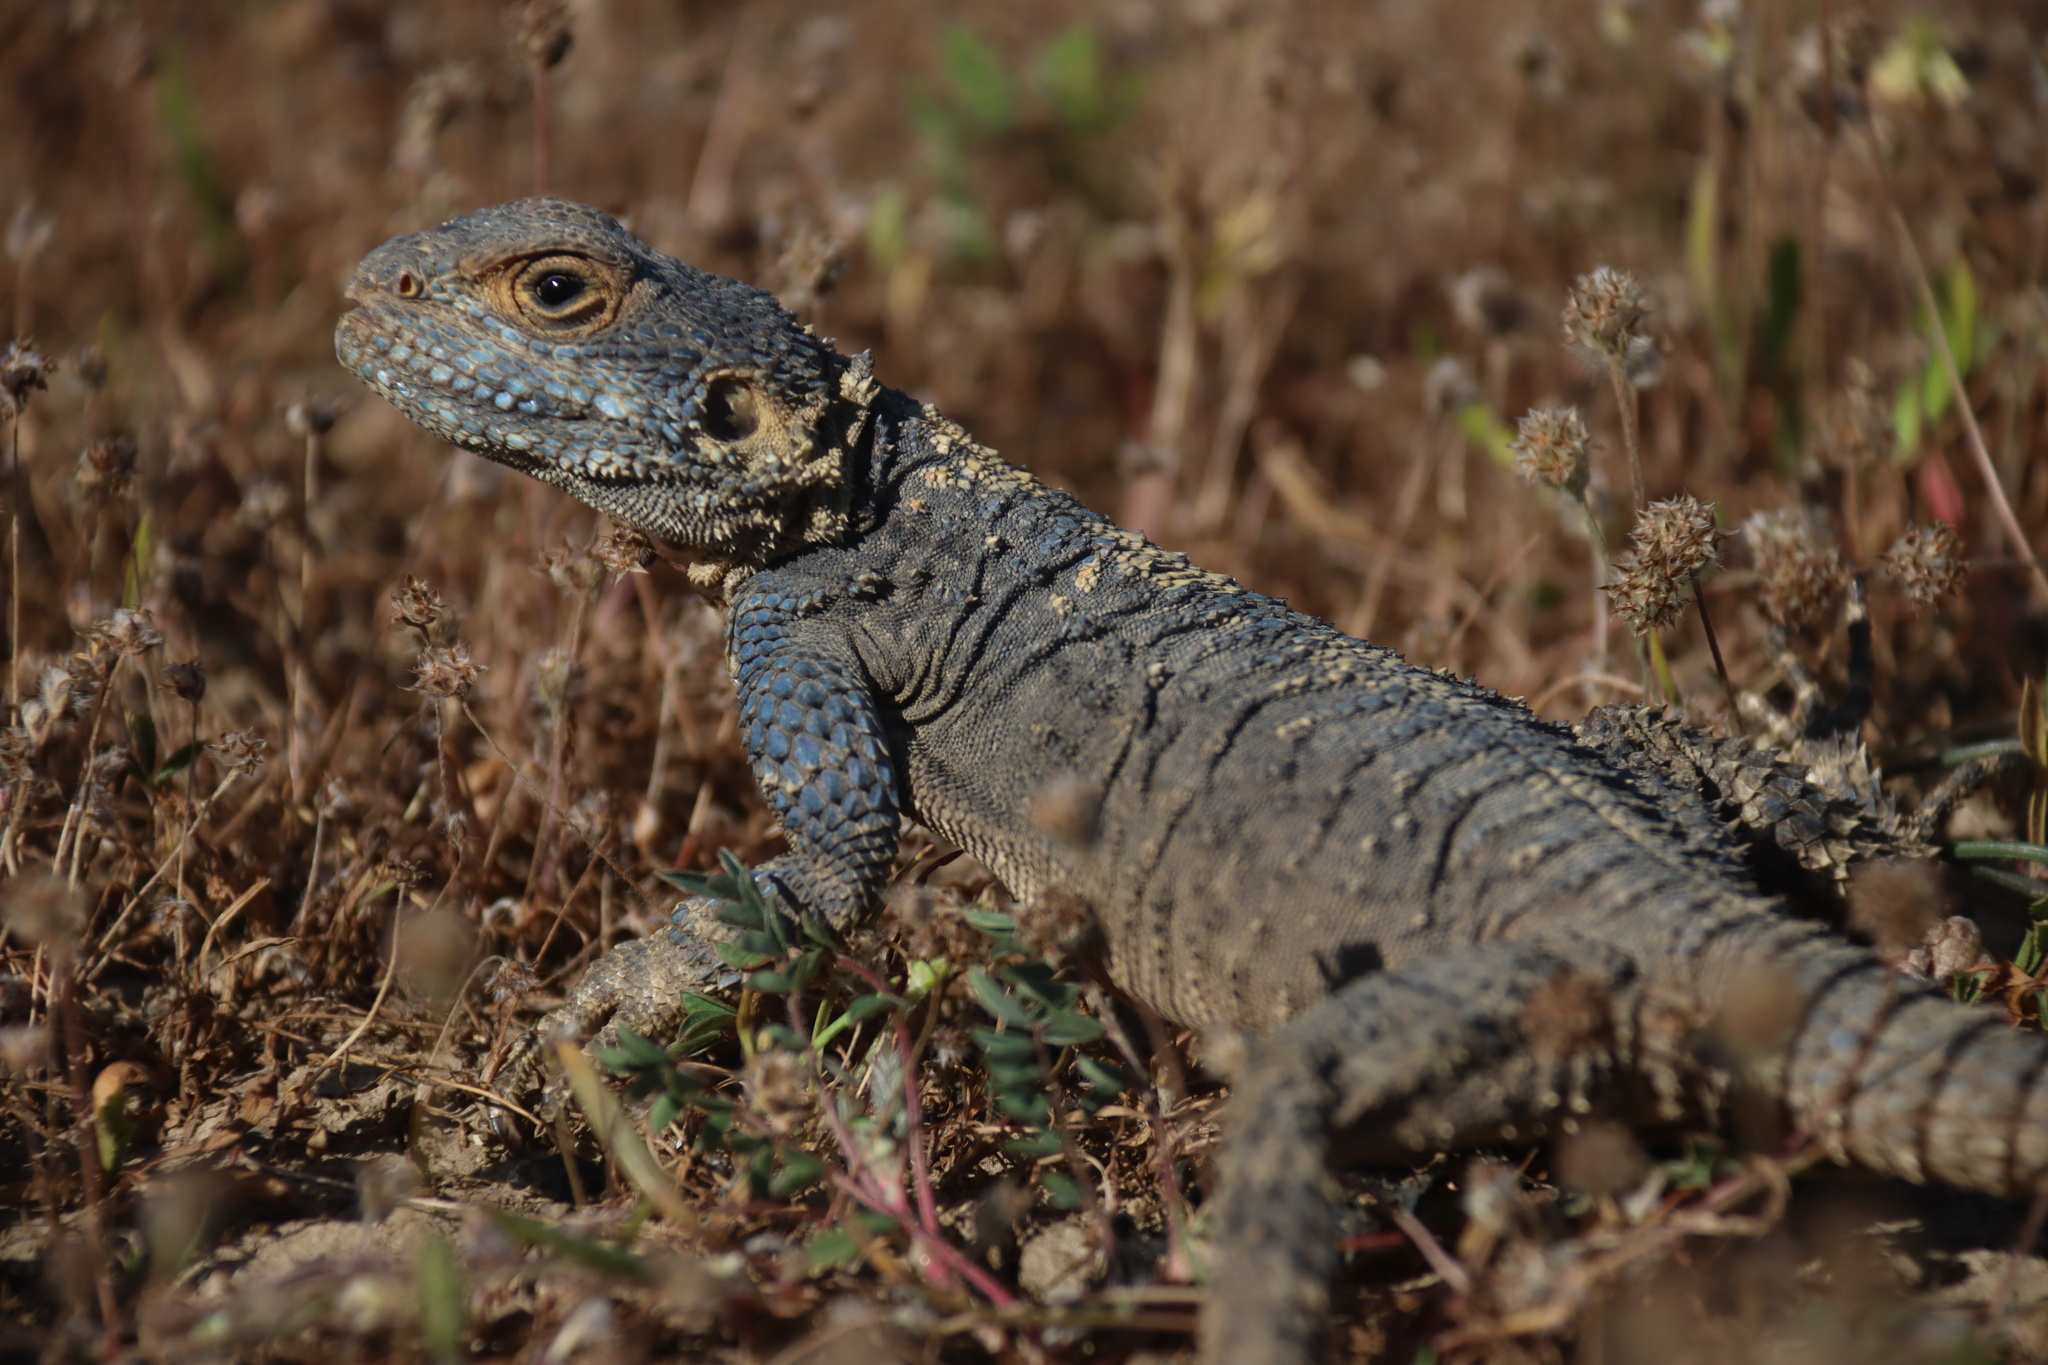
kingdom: Animalia
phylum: Chordata
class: Squamata
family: Agamidae
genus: Stellagama
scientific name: Stellagama stellio
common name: Starred agama
